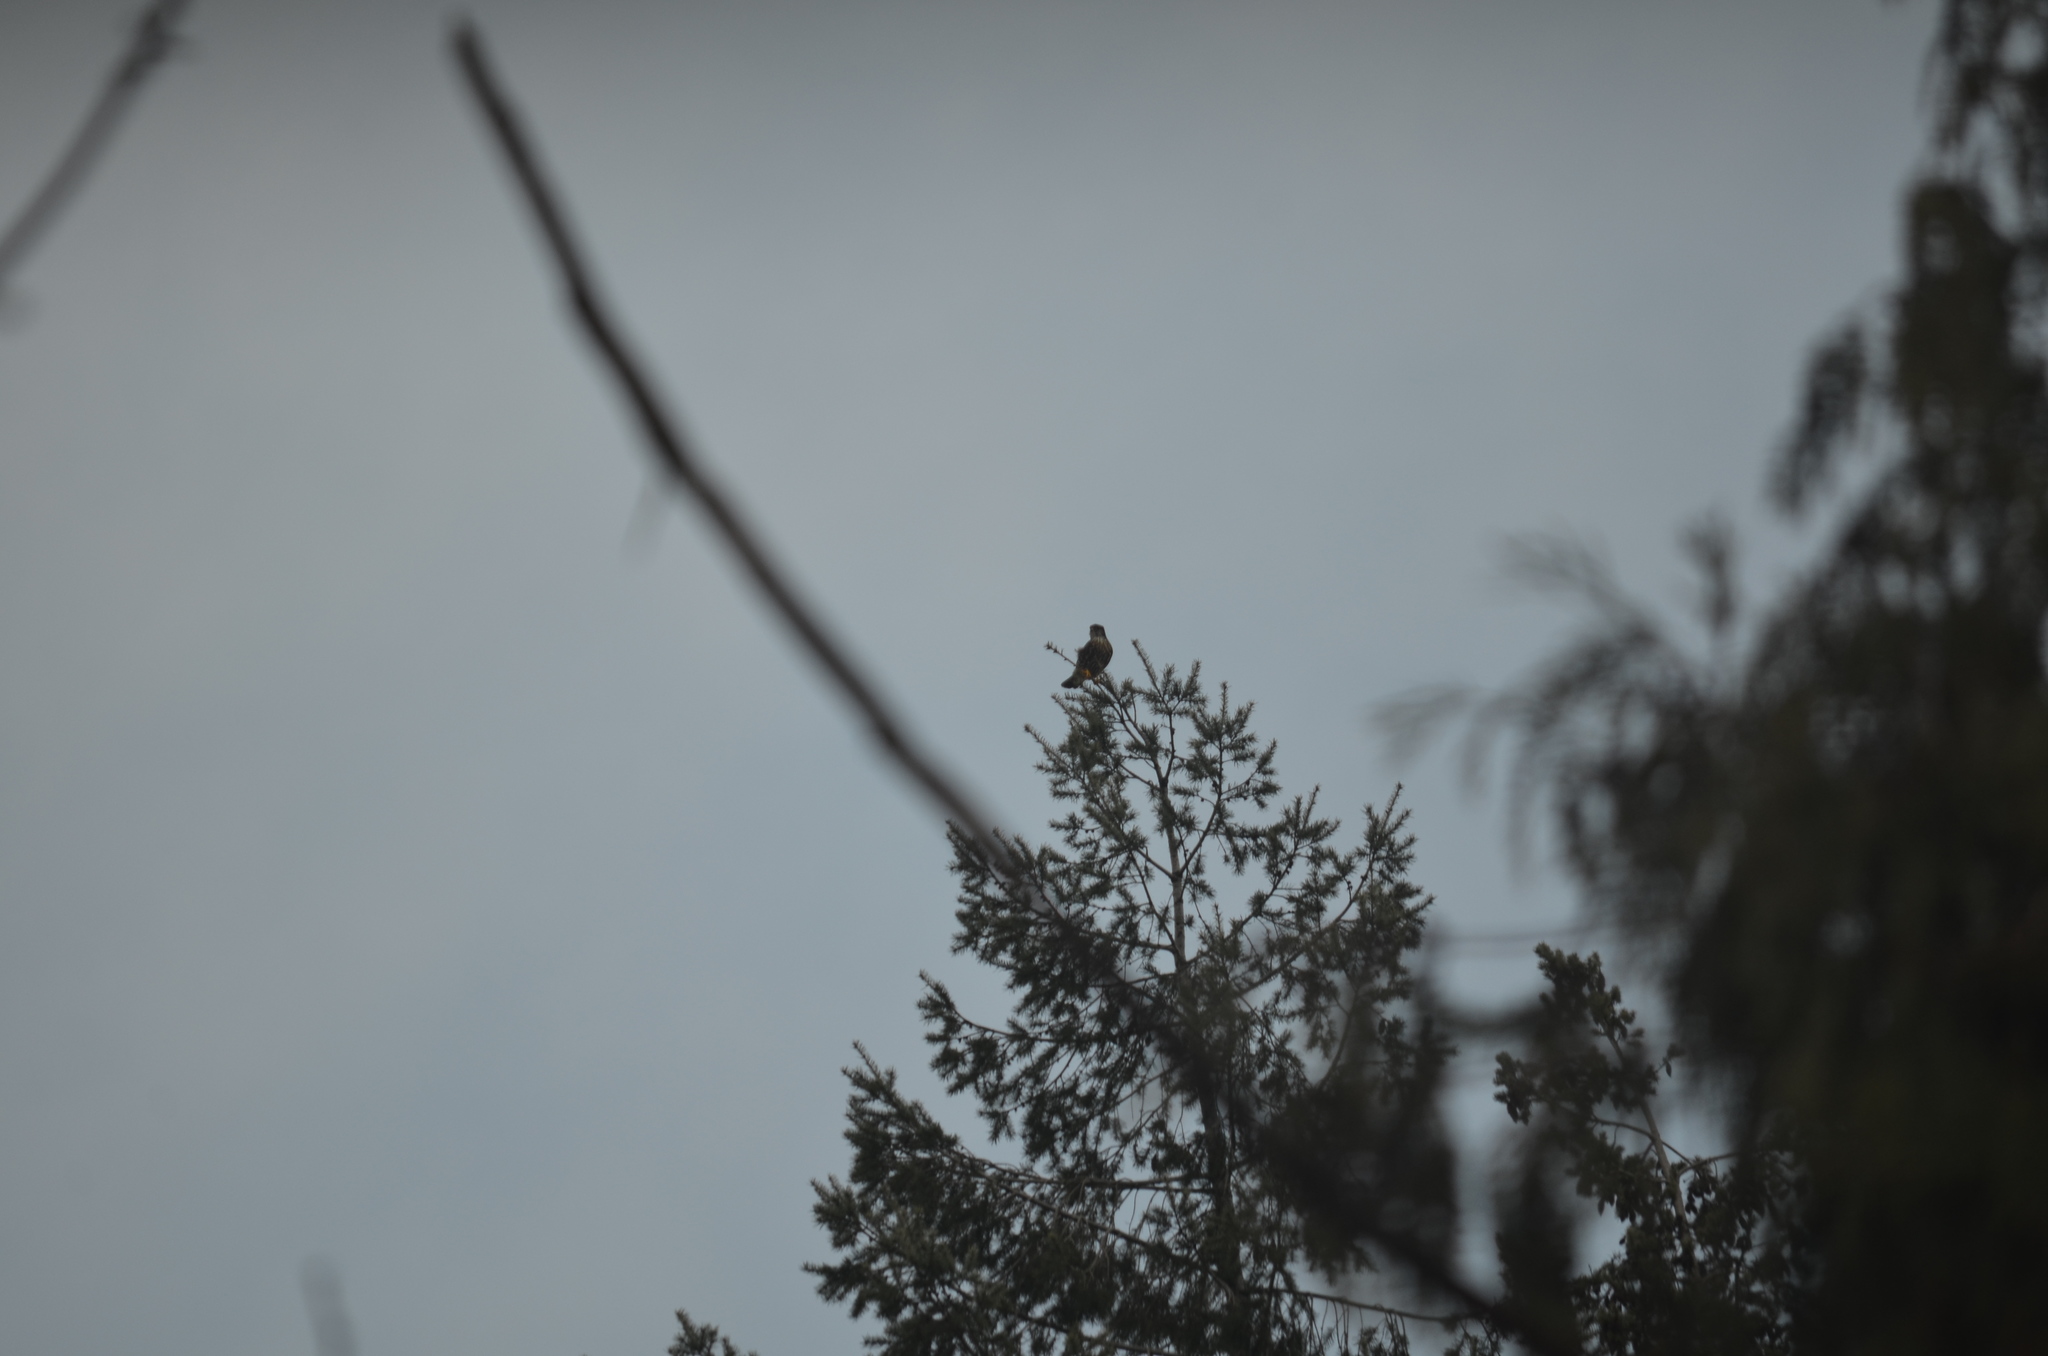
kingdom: Animalia
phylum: Chordata
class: Aves
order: Falconiformes
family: Falconidae
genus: Falco
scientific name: Falco columbarius
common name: Merlin
